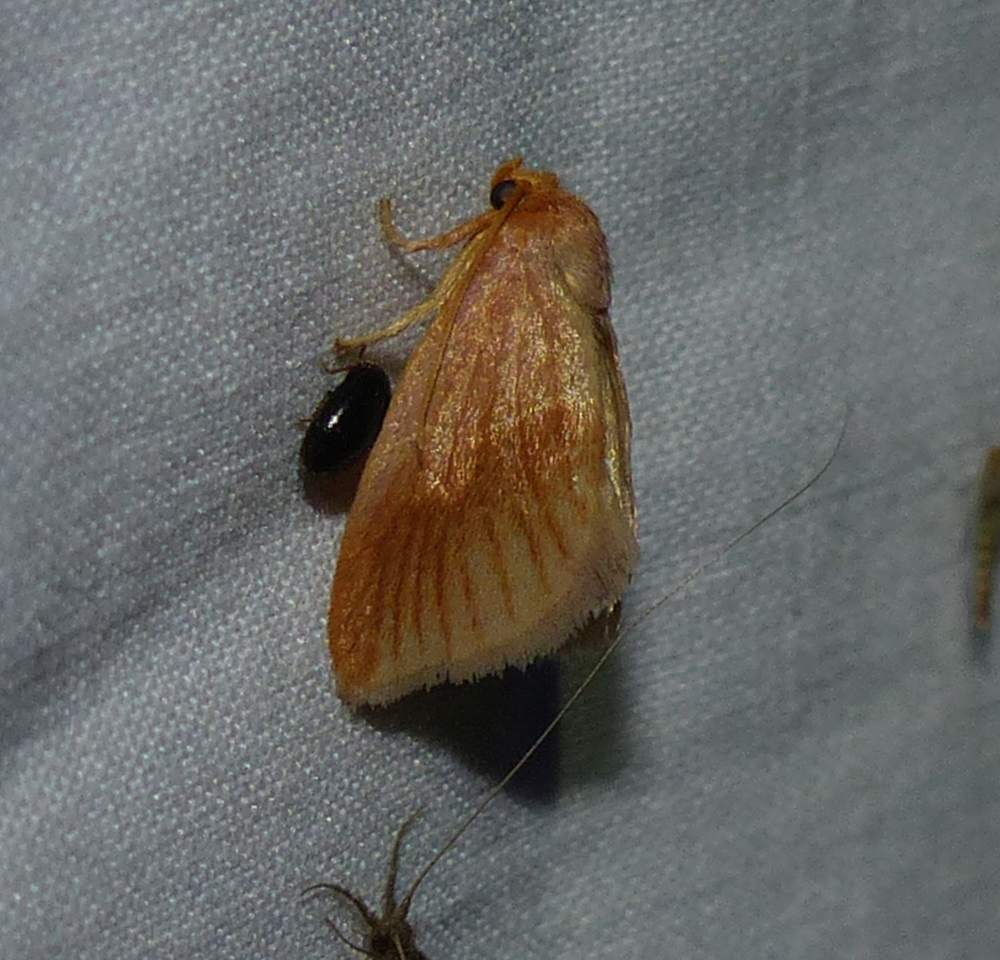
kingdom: Animalia
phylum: Arthropoda
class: Insecta
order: Lepidoptera
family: Limacodidae
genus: Tortricidia
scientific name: Tortricidia testacea
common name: Early button slug moth
